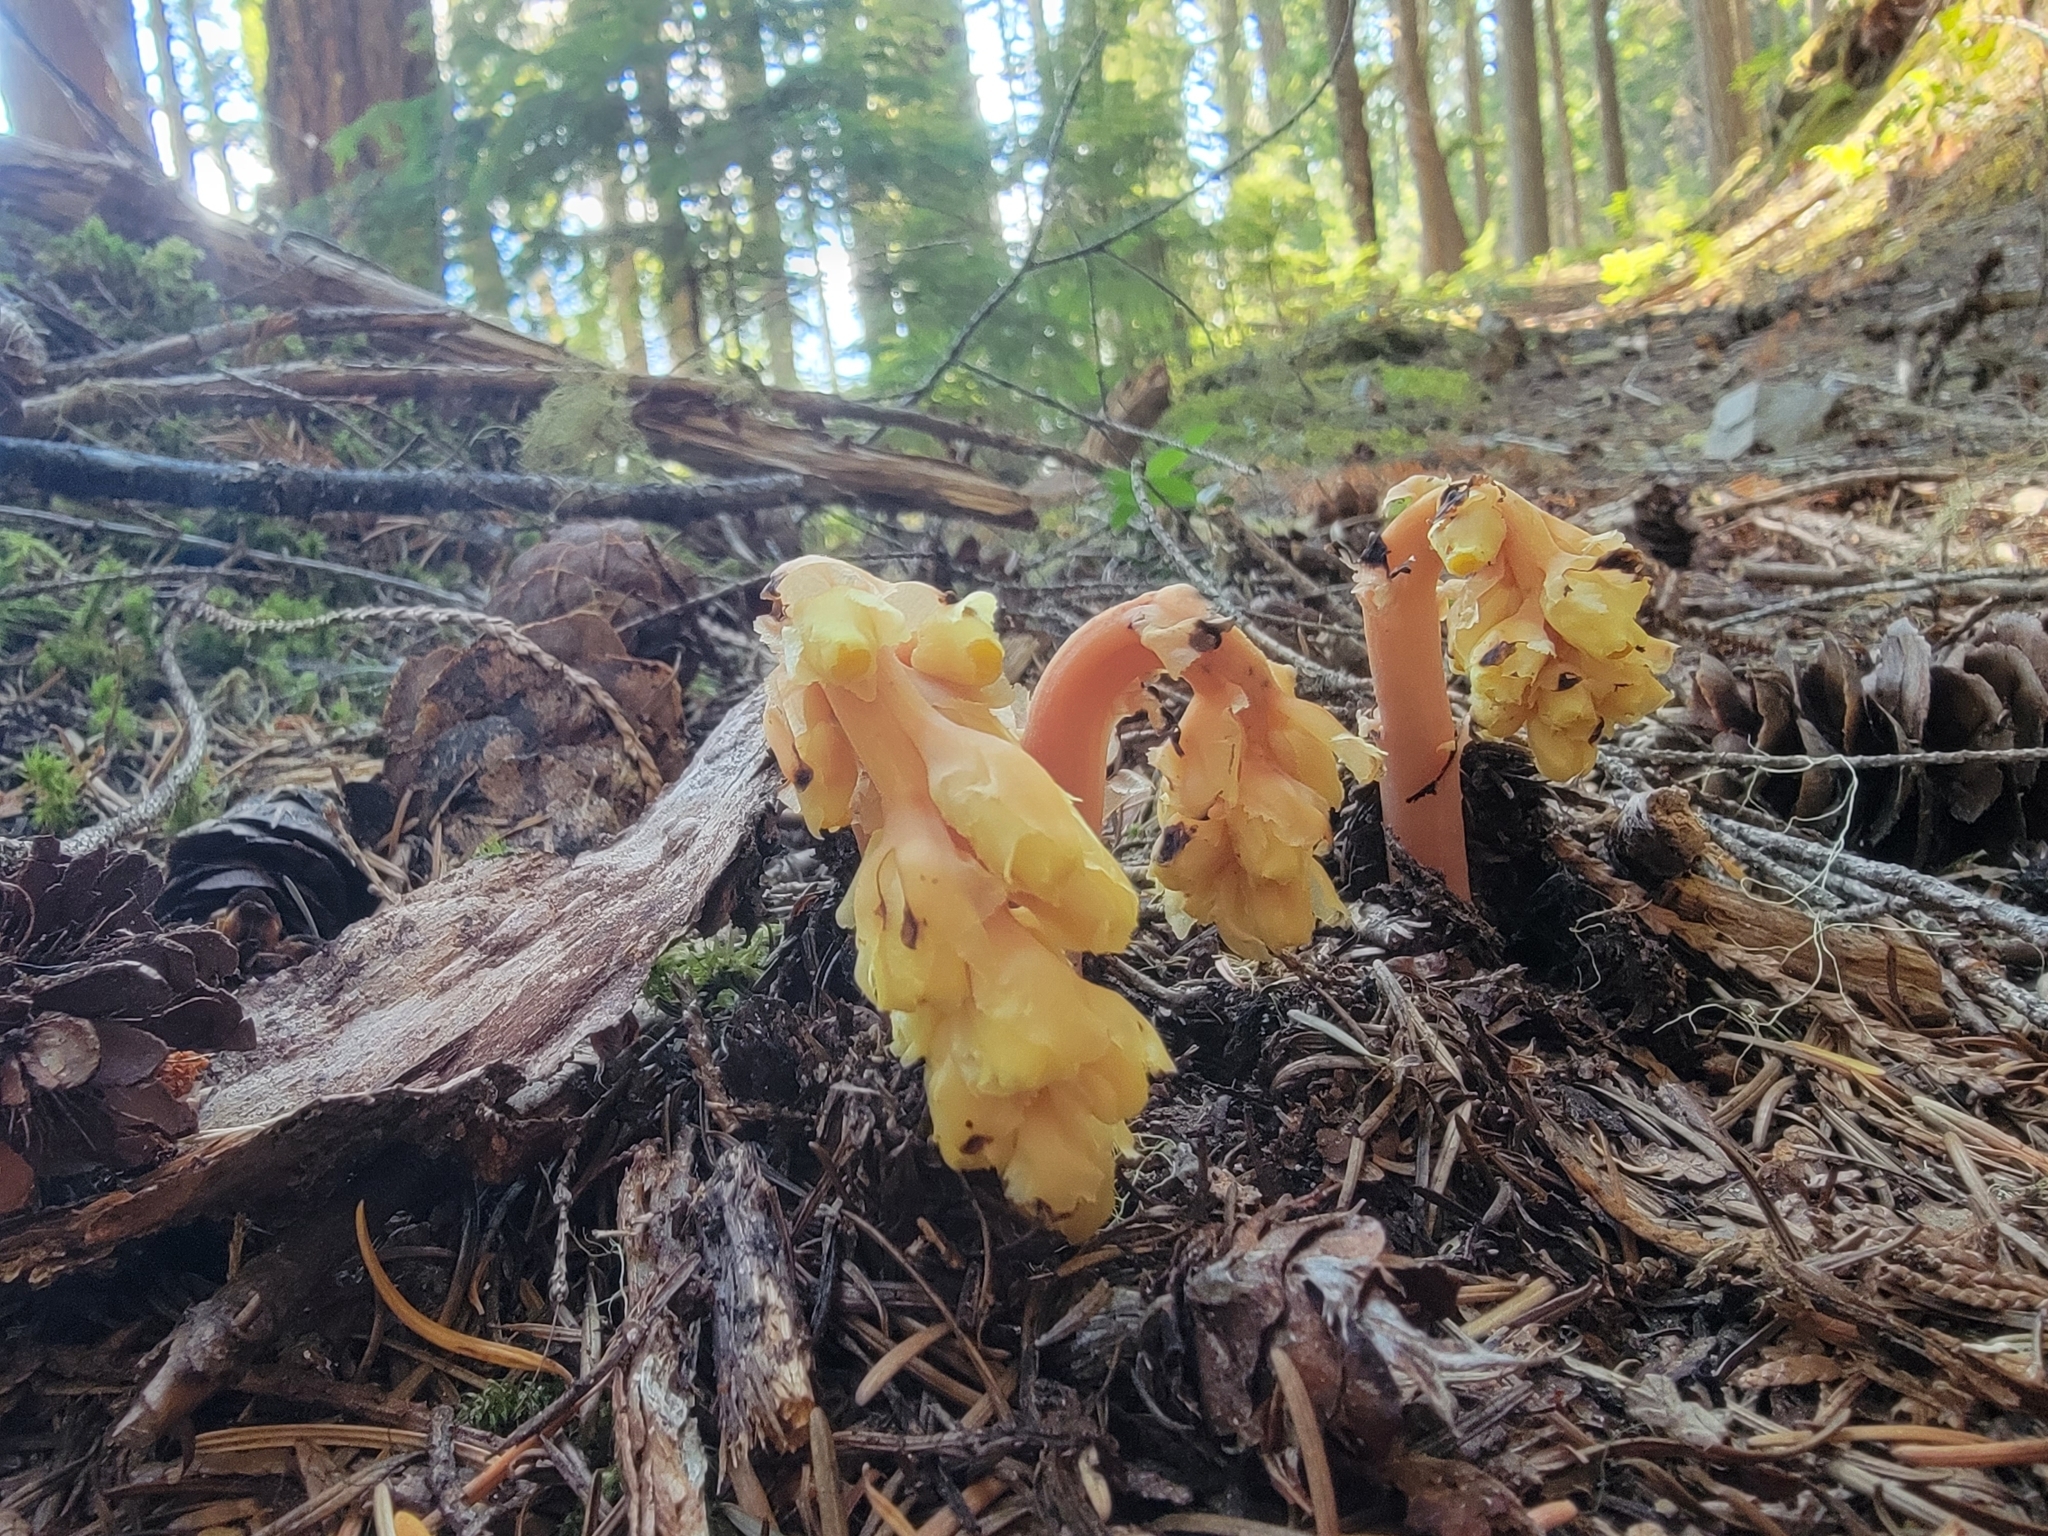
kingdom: Plantae
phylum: Tracheophyta
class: Magnoliopsida
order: Ericales
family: Ericaceae
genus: Hypopitys
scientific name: Hypopitys monotropa
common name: Yellow bird's-nest
